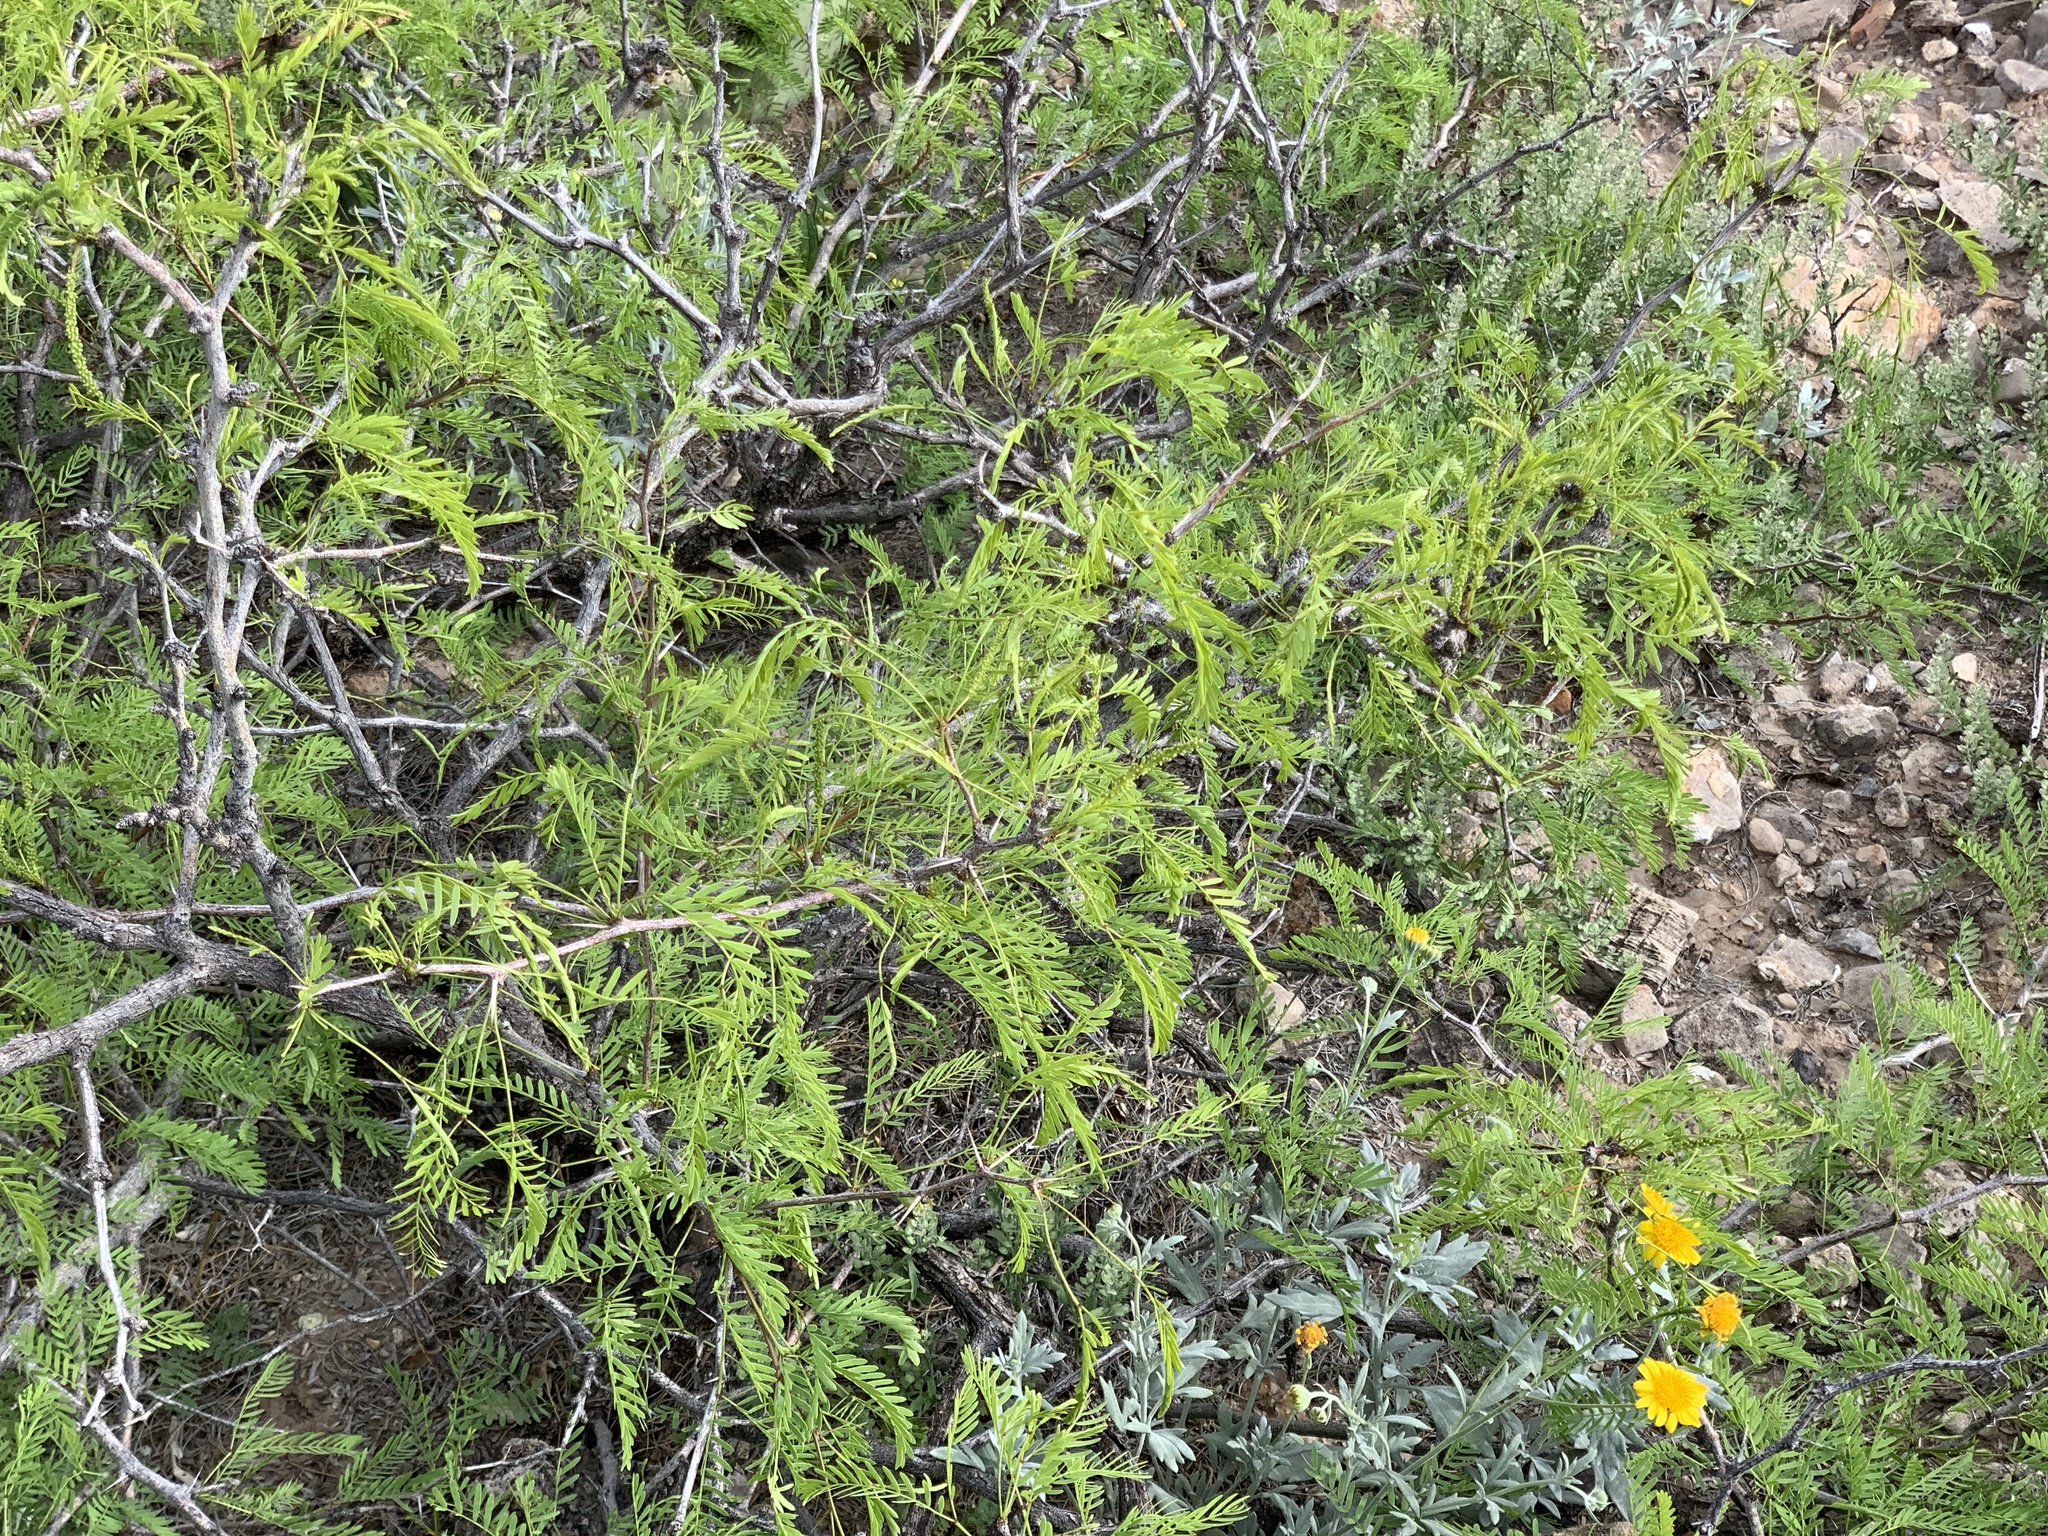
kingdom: Plantae
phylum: Tracheophyta
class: Magnoliopsida
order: Fabales
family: Fabaceae
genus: Prosopis
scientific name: Prosopis glandulosa
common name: Honey mesquite
